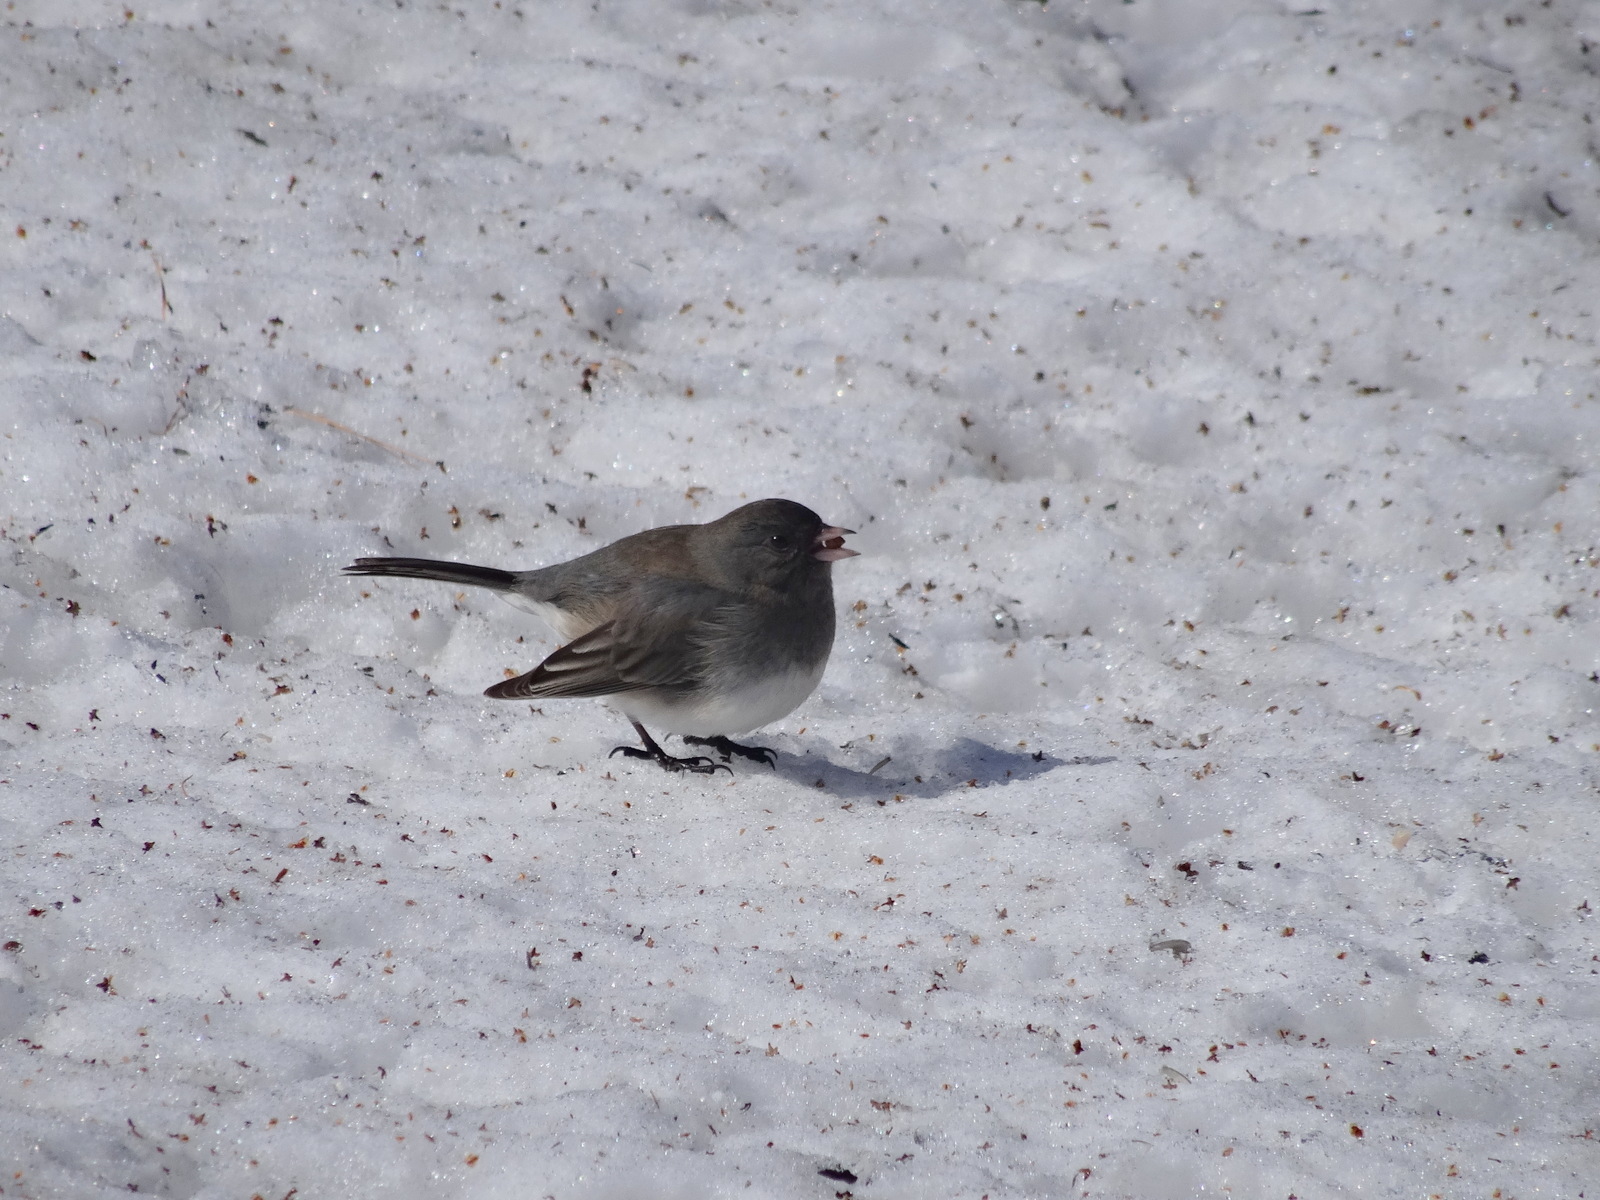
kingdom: Animalia
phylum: Chordata
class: Aves
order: Passeriformes
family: Passerellidae
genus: Junco
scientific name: Junco hyemalis
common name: Dark-eyed junco
